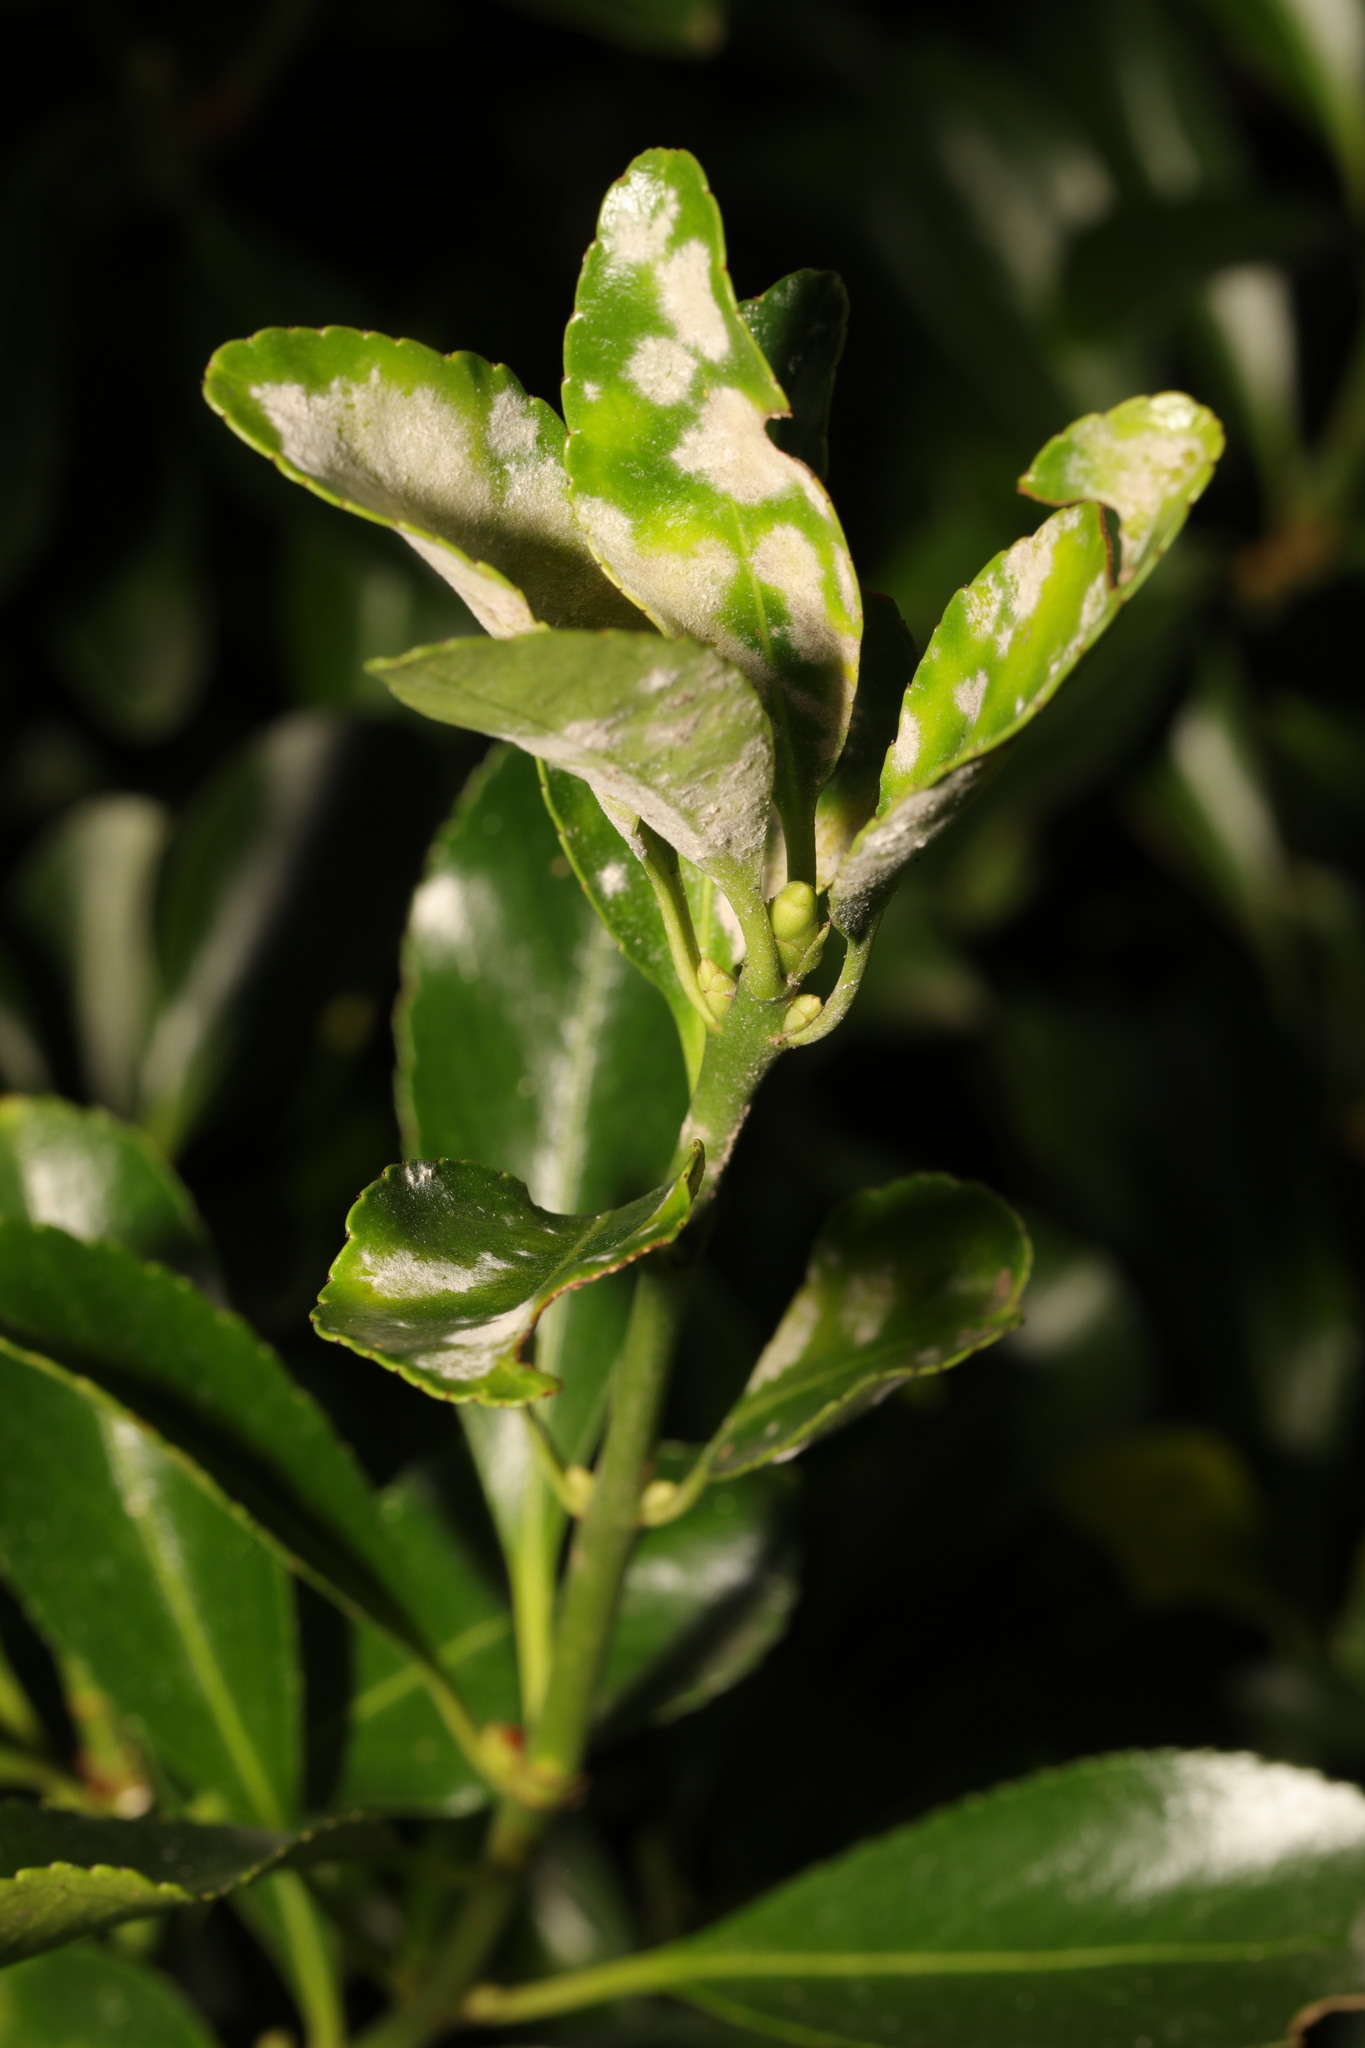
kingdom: Fungi
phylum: Ascomycota
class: Leotiomycetes
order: Helotiales
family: Erysiphaceae
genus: Erysiphe
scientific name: Erysiphe euonymicola
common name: Spindletree mildew
